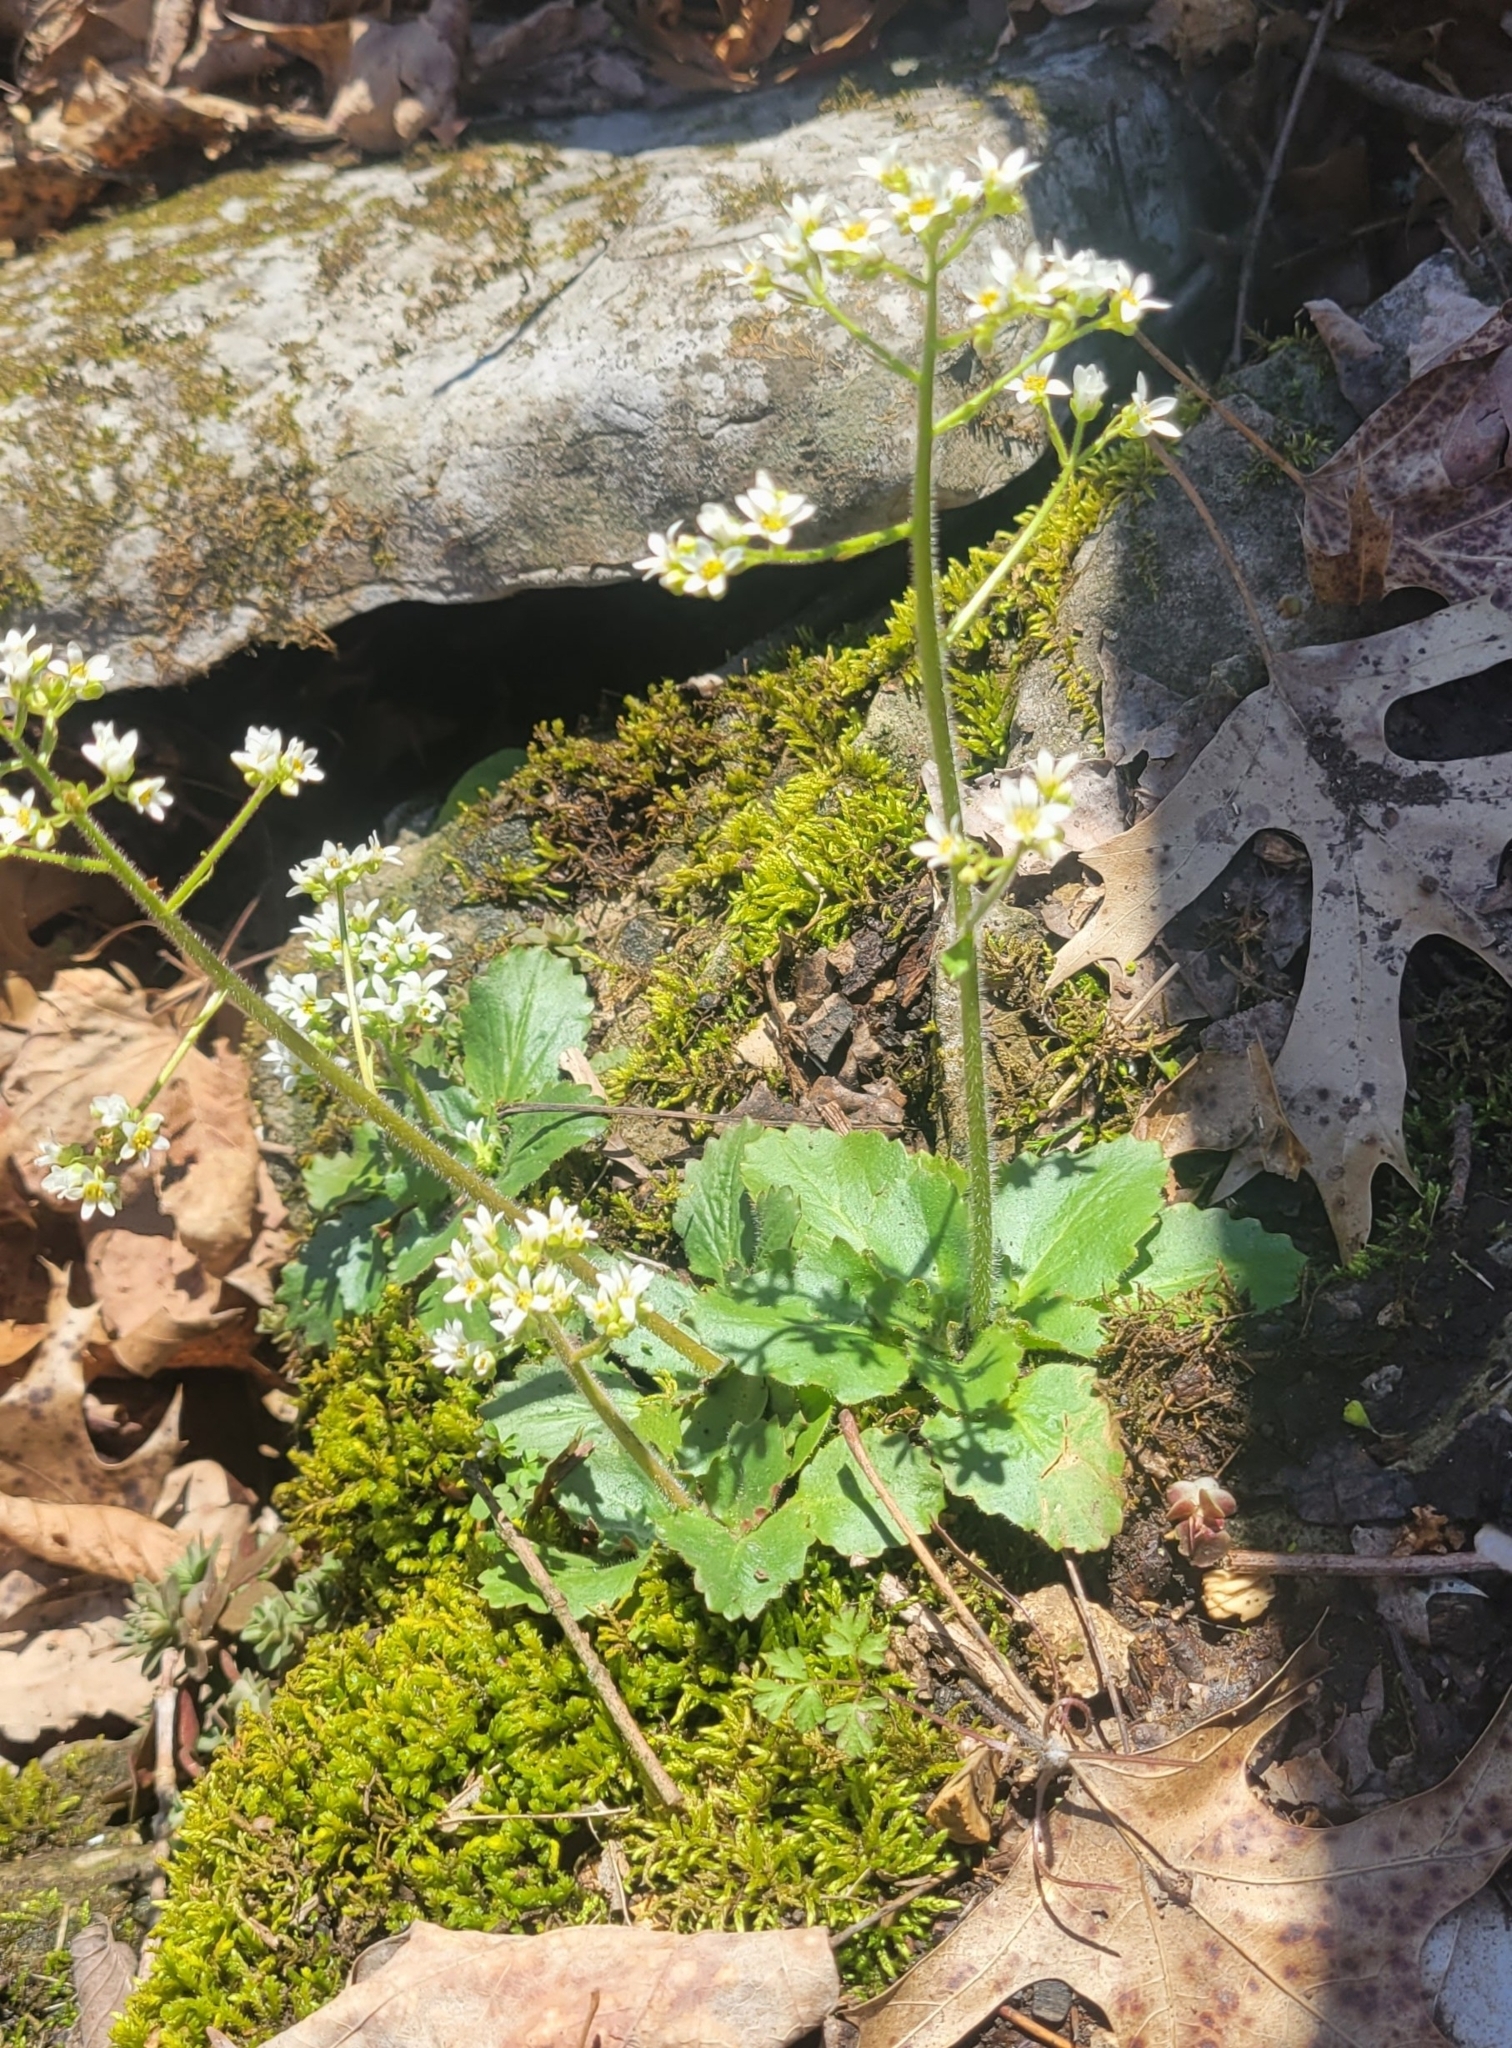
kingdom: Plantae
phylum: Tracheophyta
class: Magnoliopsida
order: Saxifragales
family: Saxifragaceae
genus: Micranthes
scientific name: Micranthes virginiensis
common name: Early saxifrage
